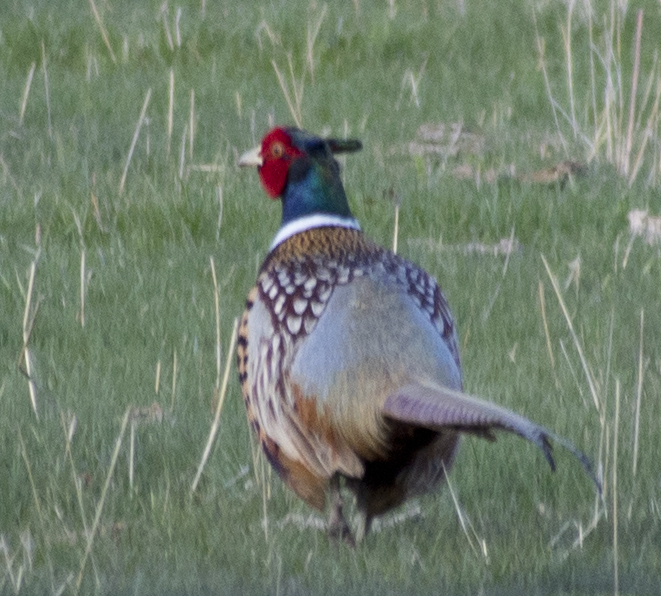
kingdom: Animalia
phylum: Chordata
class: Aves
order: Galliformes
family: Phasianidae
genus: Phasianus
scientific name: Phasianus colchicus
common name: Common pheasant
